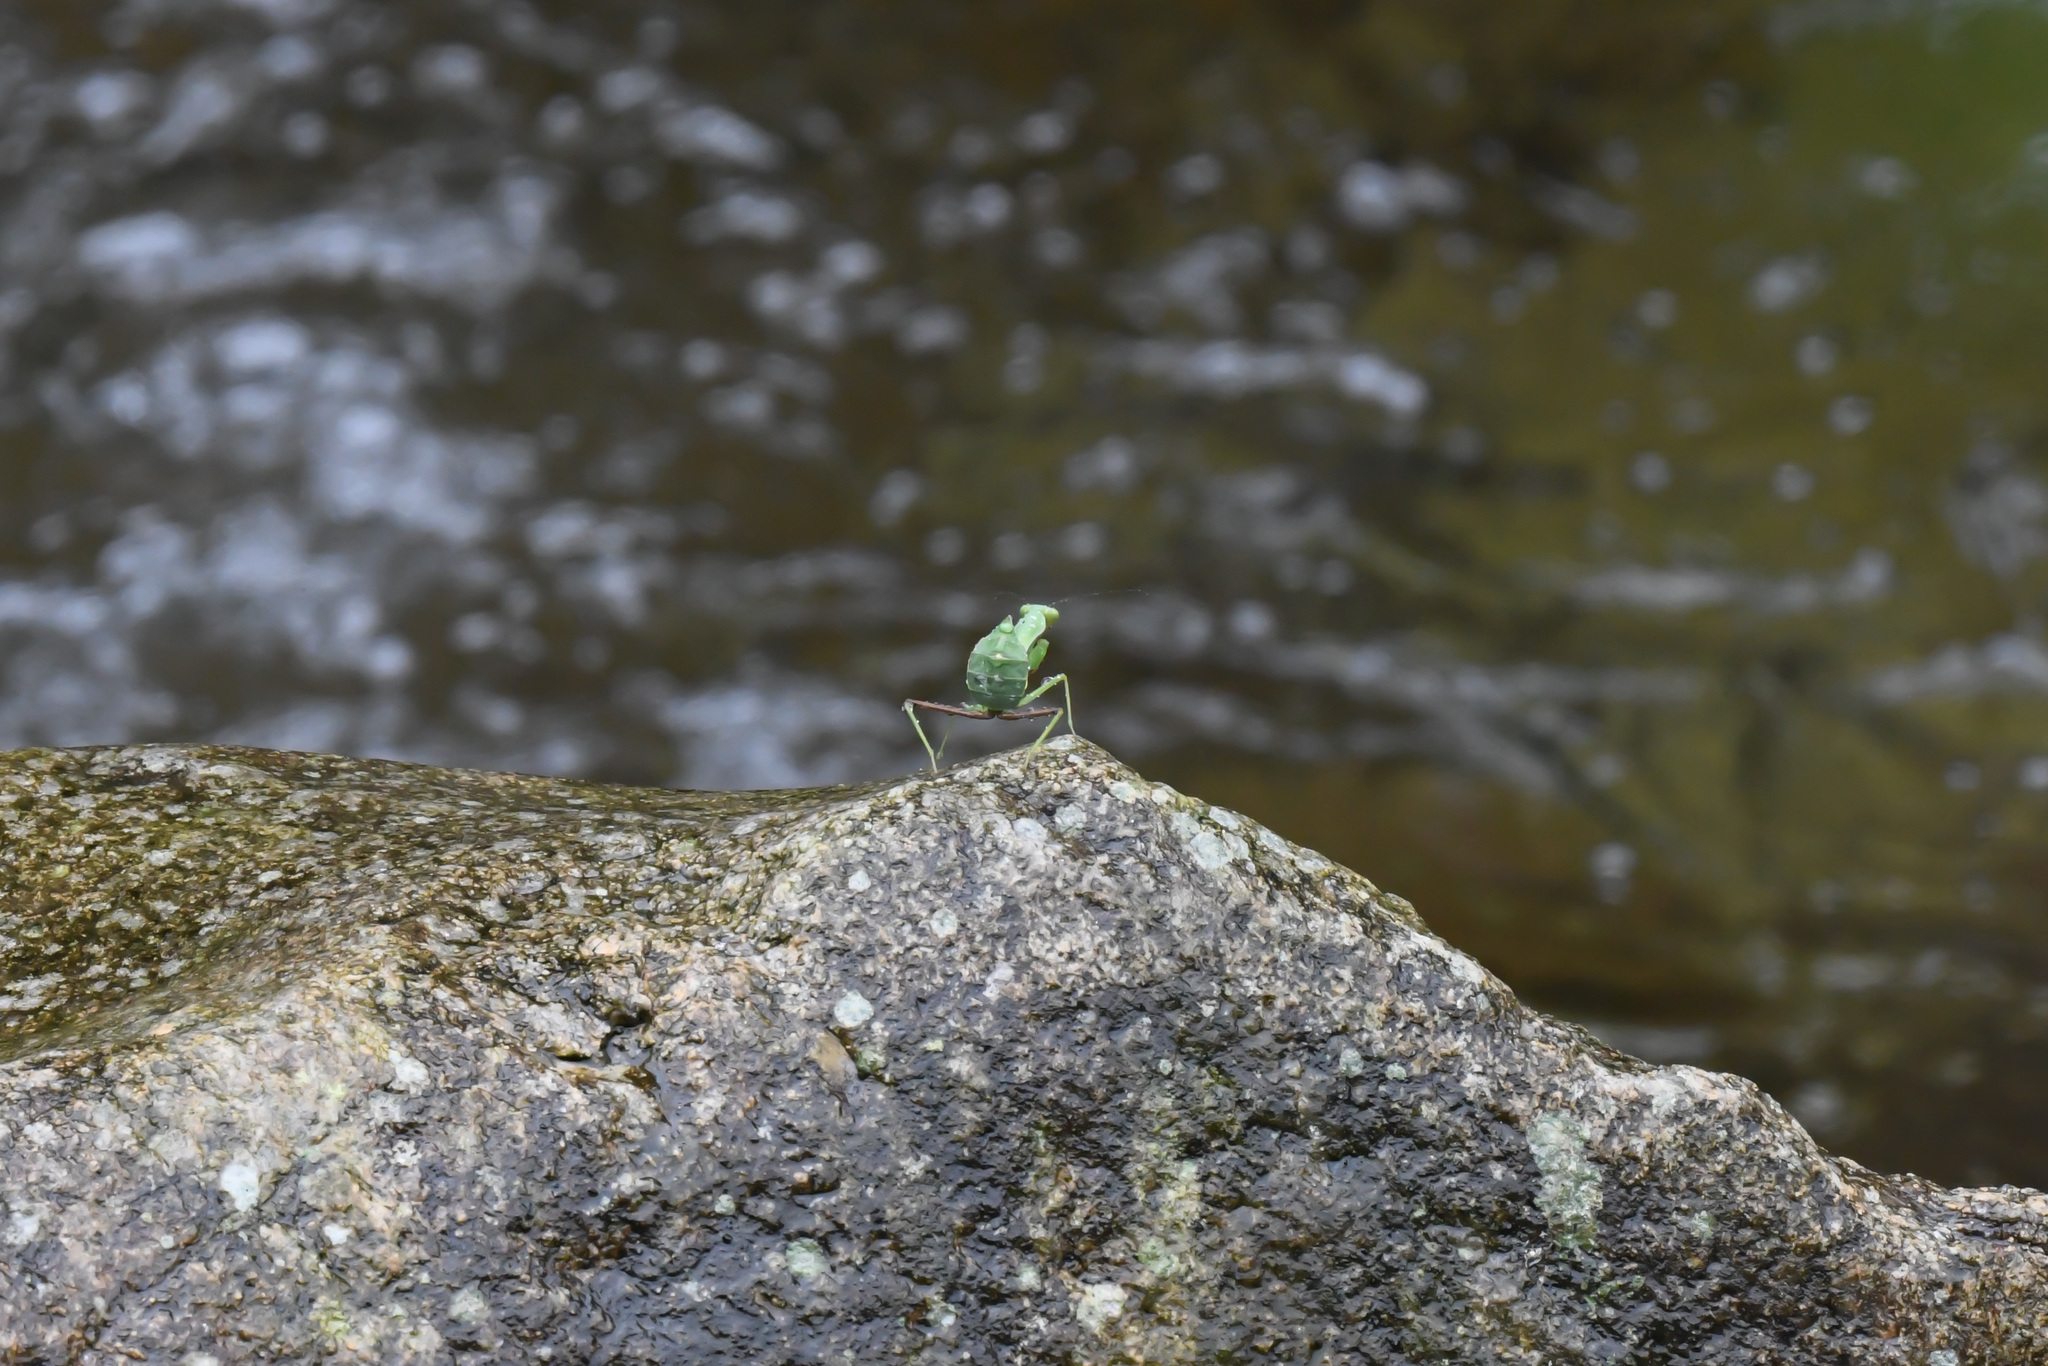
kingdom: Animalia
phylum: Arthropoda
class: Insecta
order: Mantodea
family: Mantidae
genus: Hierodula
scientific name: Hierodula chinensis
